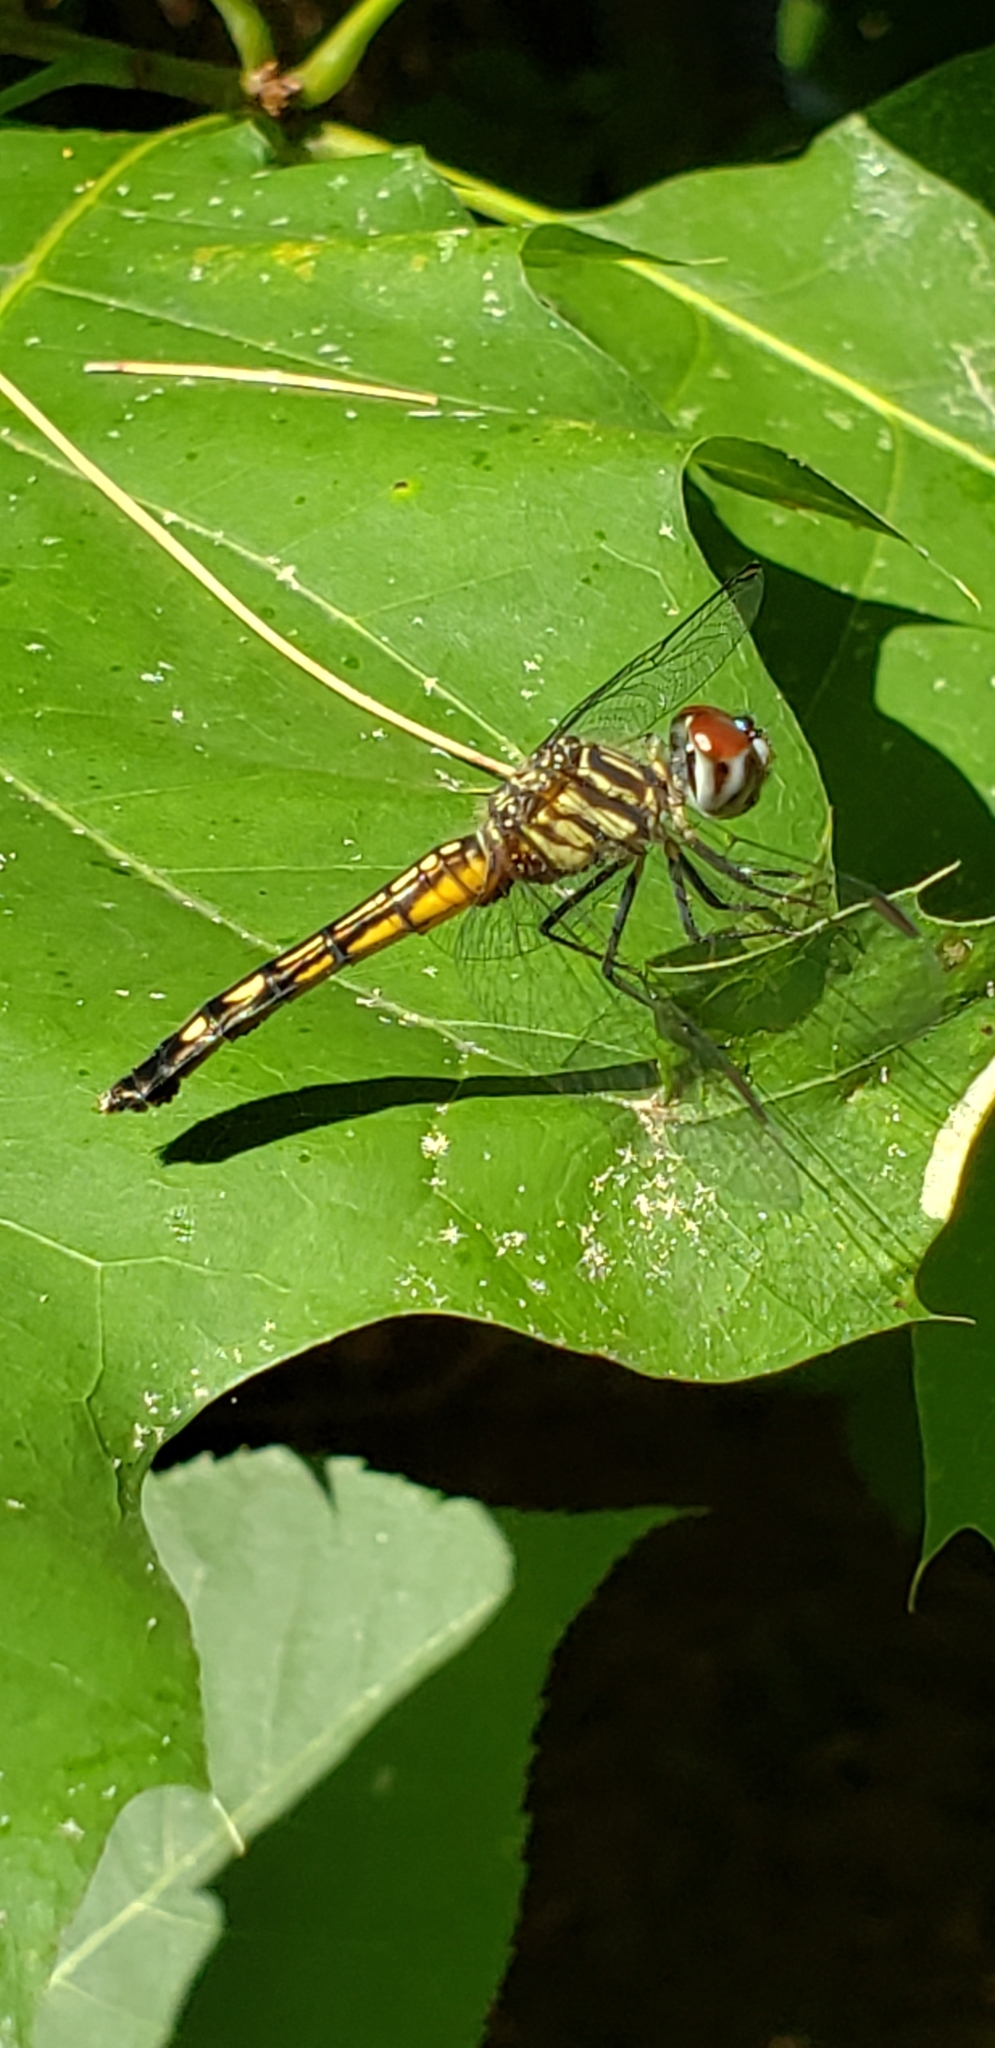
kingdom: Animalia
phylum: Arthropoda
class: Insecta
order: Odonata
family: Libellulidae
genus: Pachydiplax
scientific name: Pachydiplax longipennis
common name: Blue dasher
